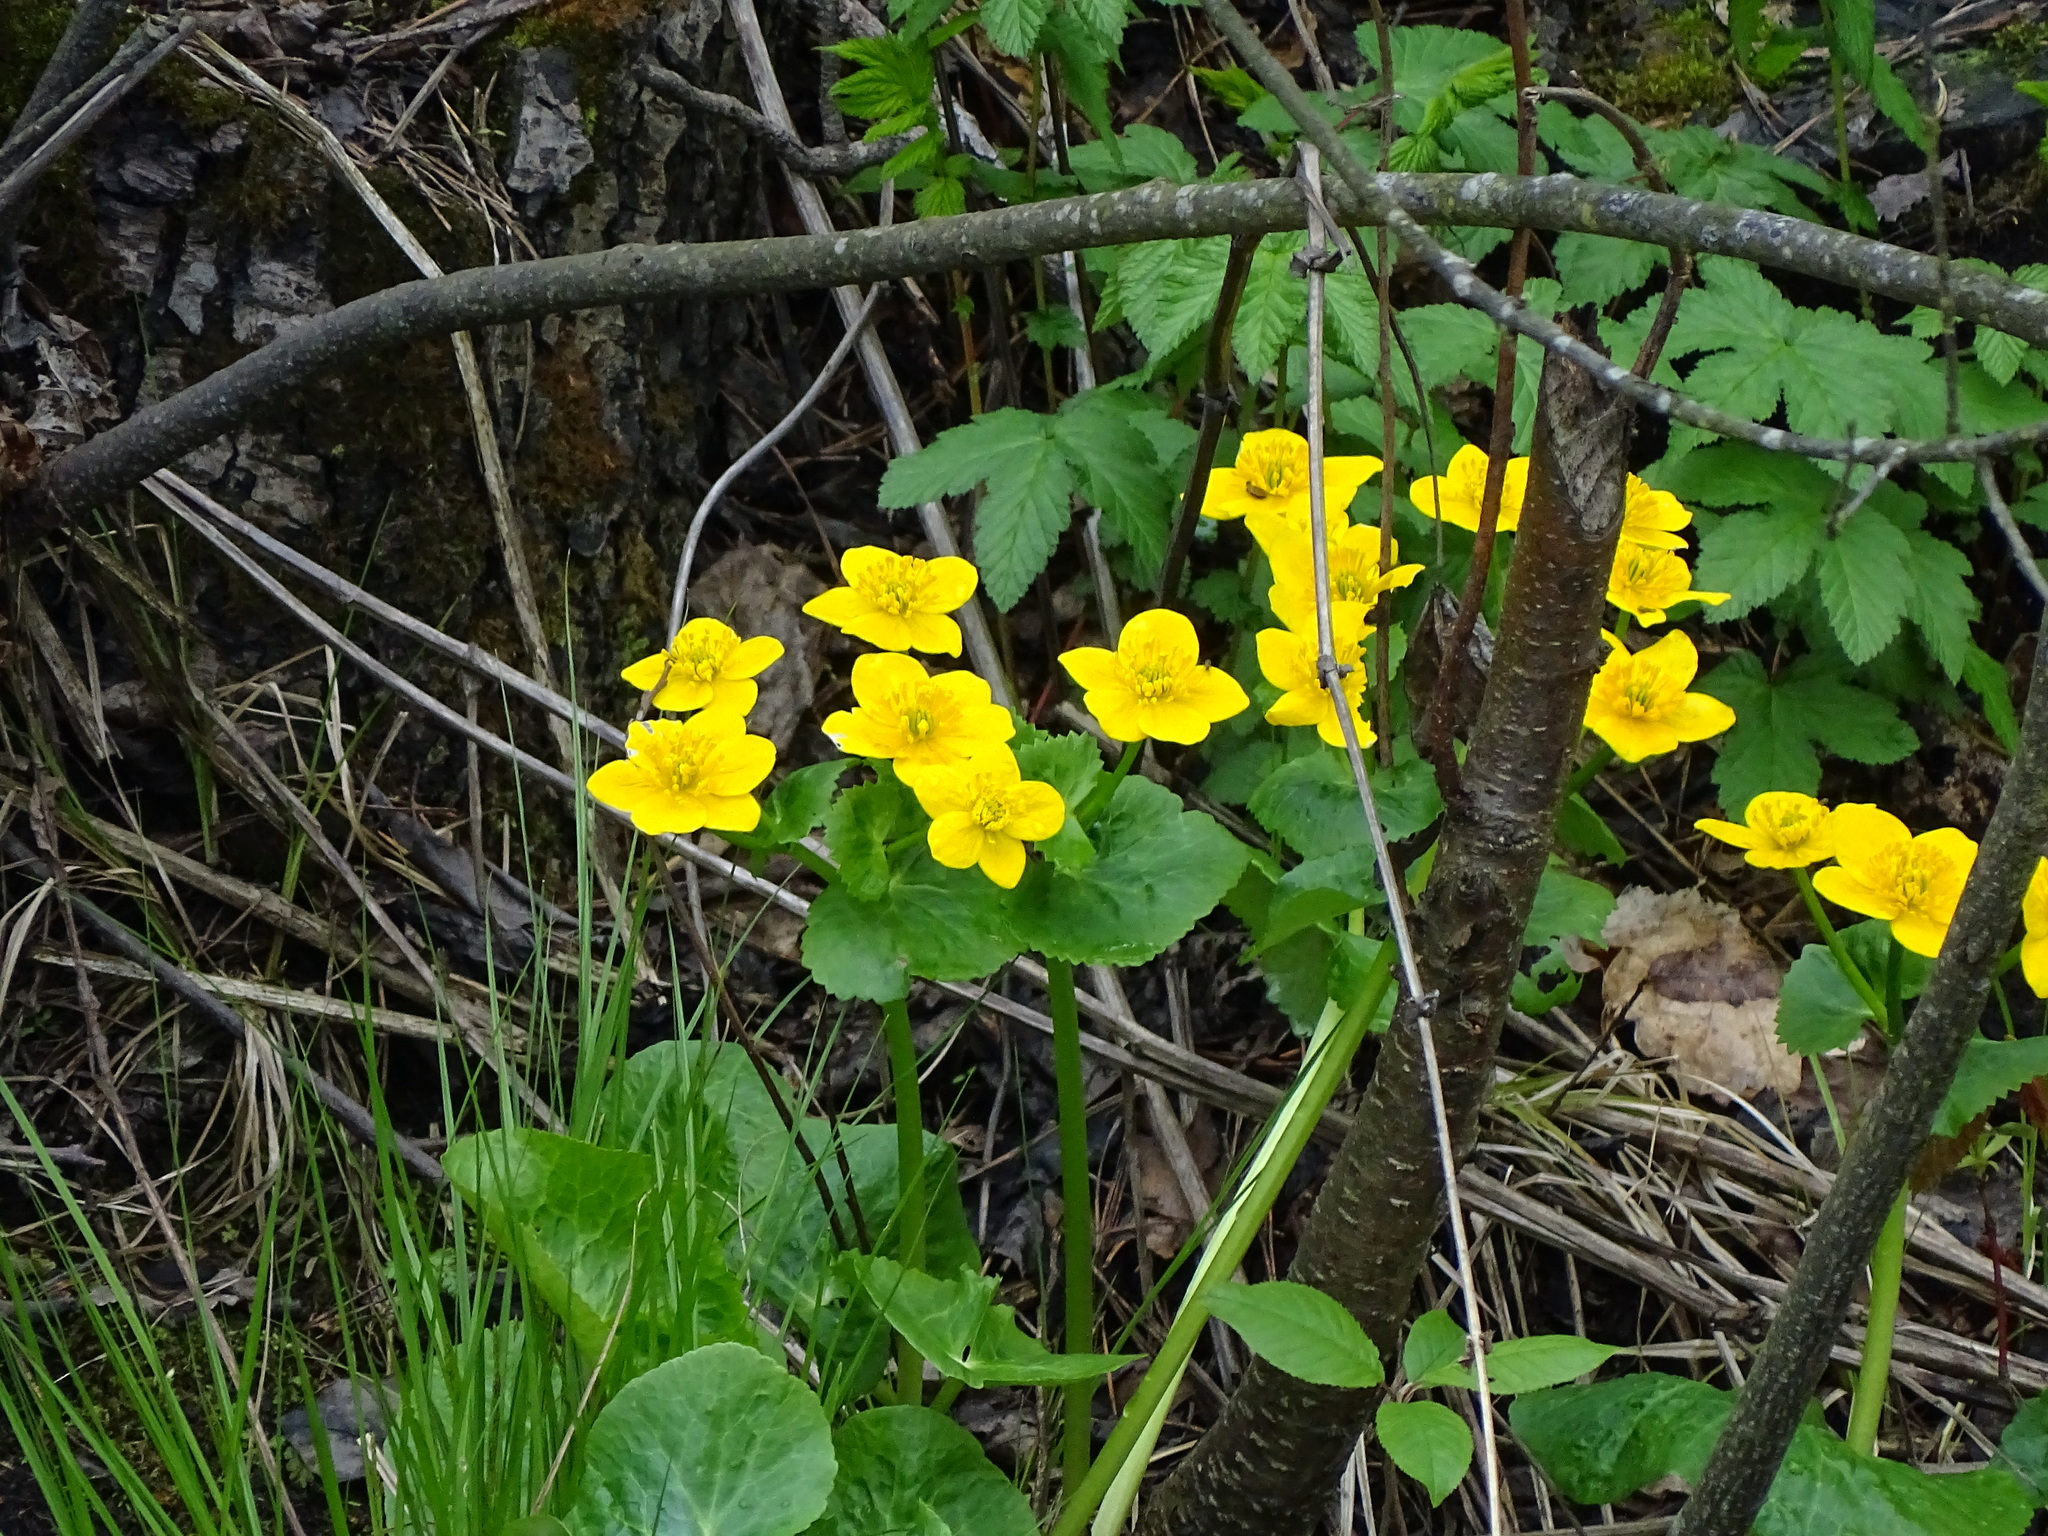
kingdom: Plantae
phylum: Tracheophyta
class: Magnoliopsida
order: Ranunculales
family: Ranunculaceae
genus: Caltha
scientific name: Caltha palustris
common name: Marsh marigold
